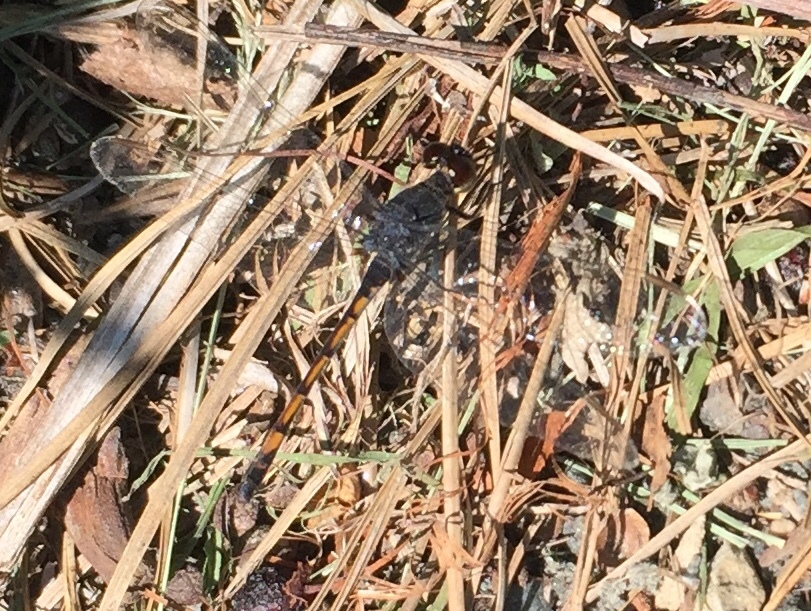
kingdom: Animalia
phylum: Arthropoda
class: Insecta
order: Odonata
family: Libellulidae
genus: Erythrodiplax
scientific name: Erythrodiplax berenice
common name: Seaside dragonlet
